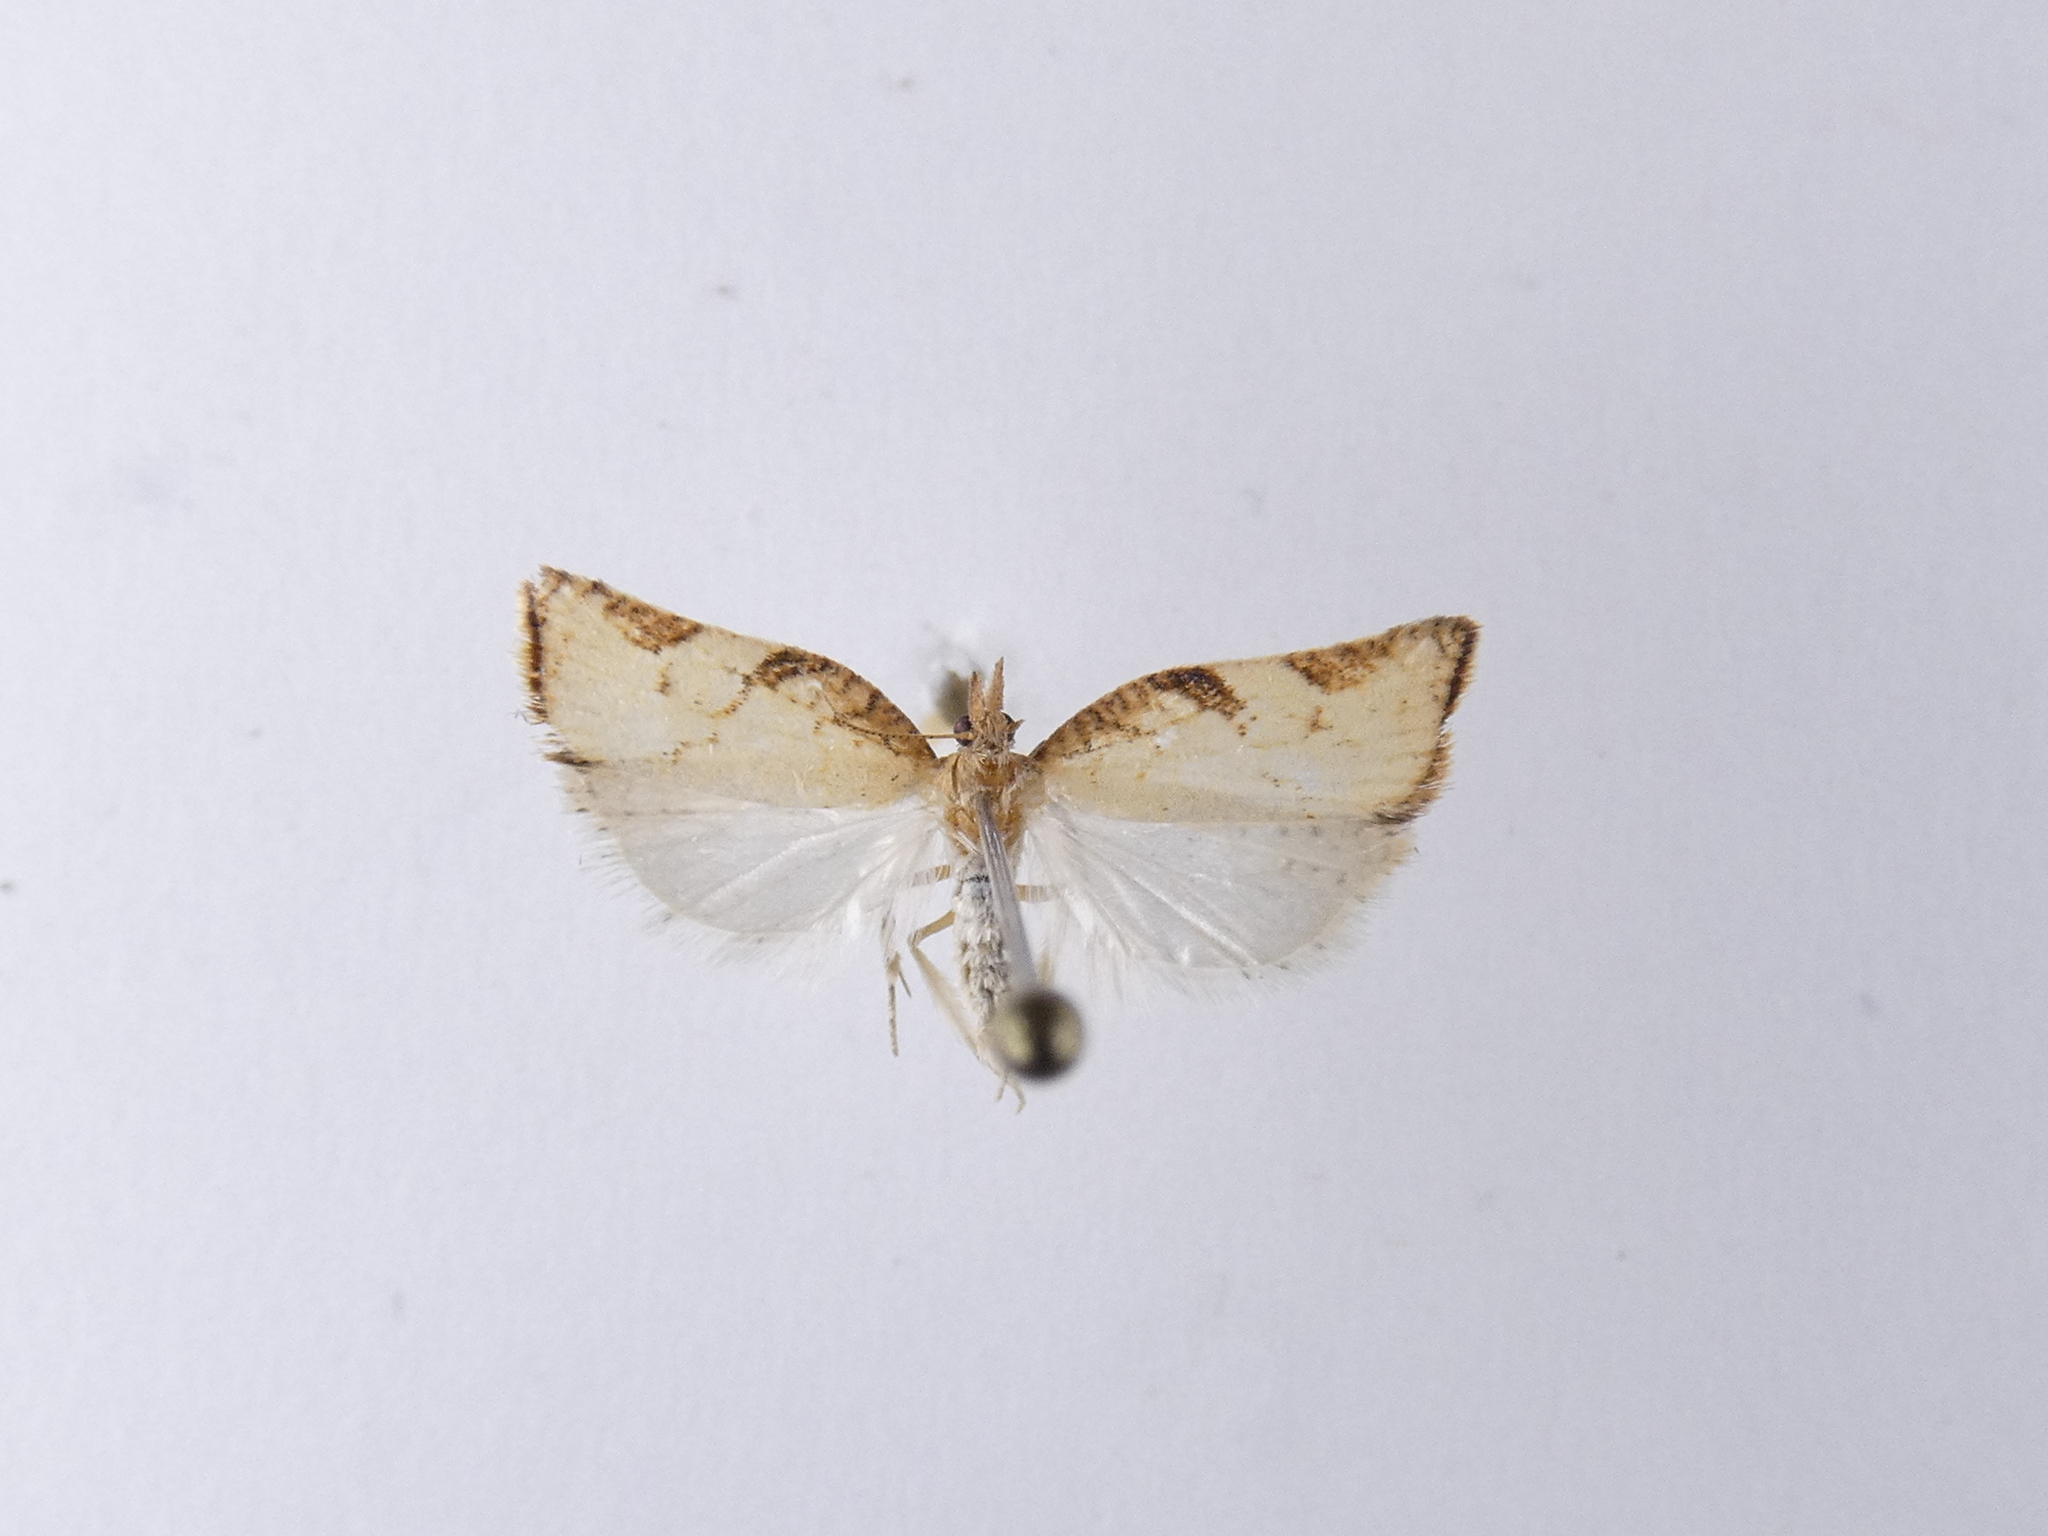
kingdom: Animalia
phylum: Arthropoda
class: Insecta
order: Lepidoptera
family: Tortricidae
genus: Catamacta
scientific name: Catamacta gavisana
